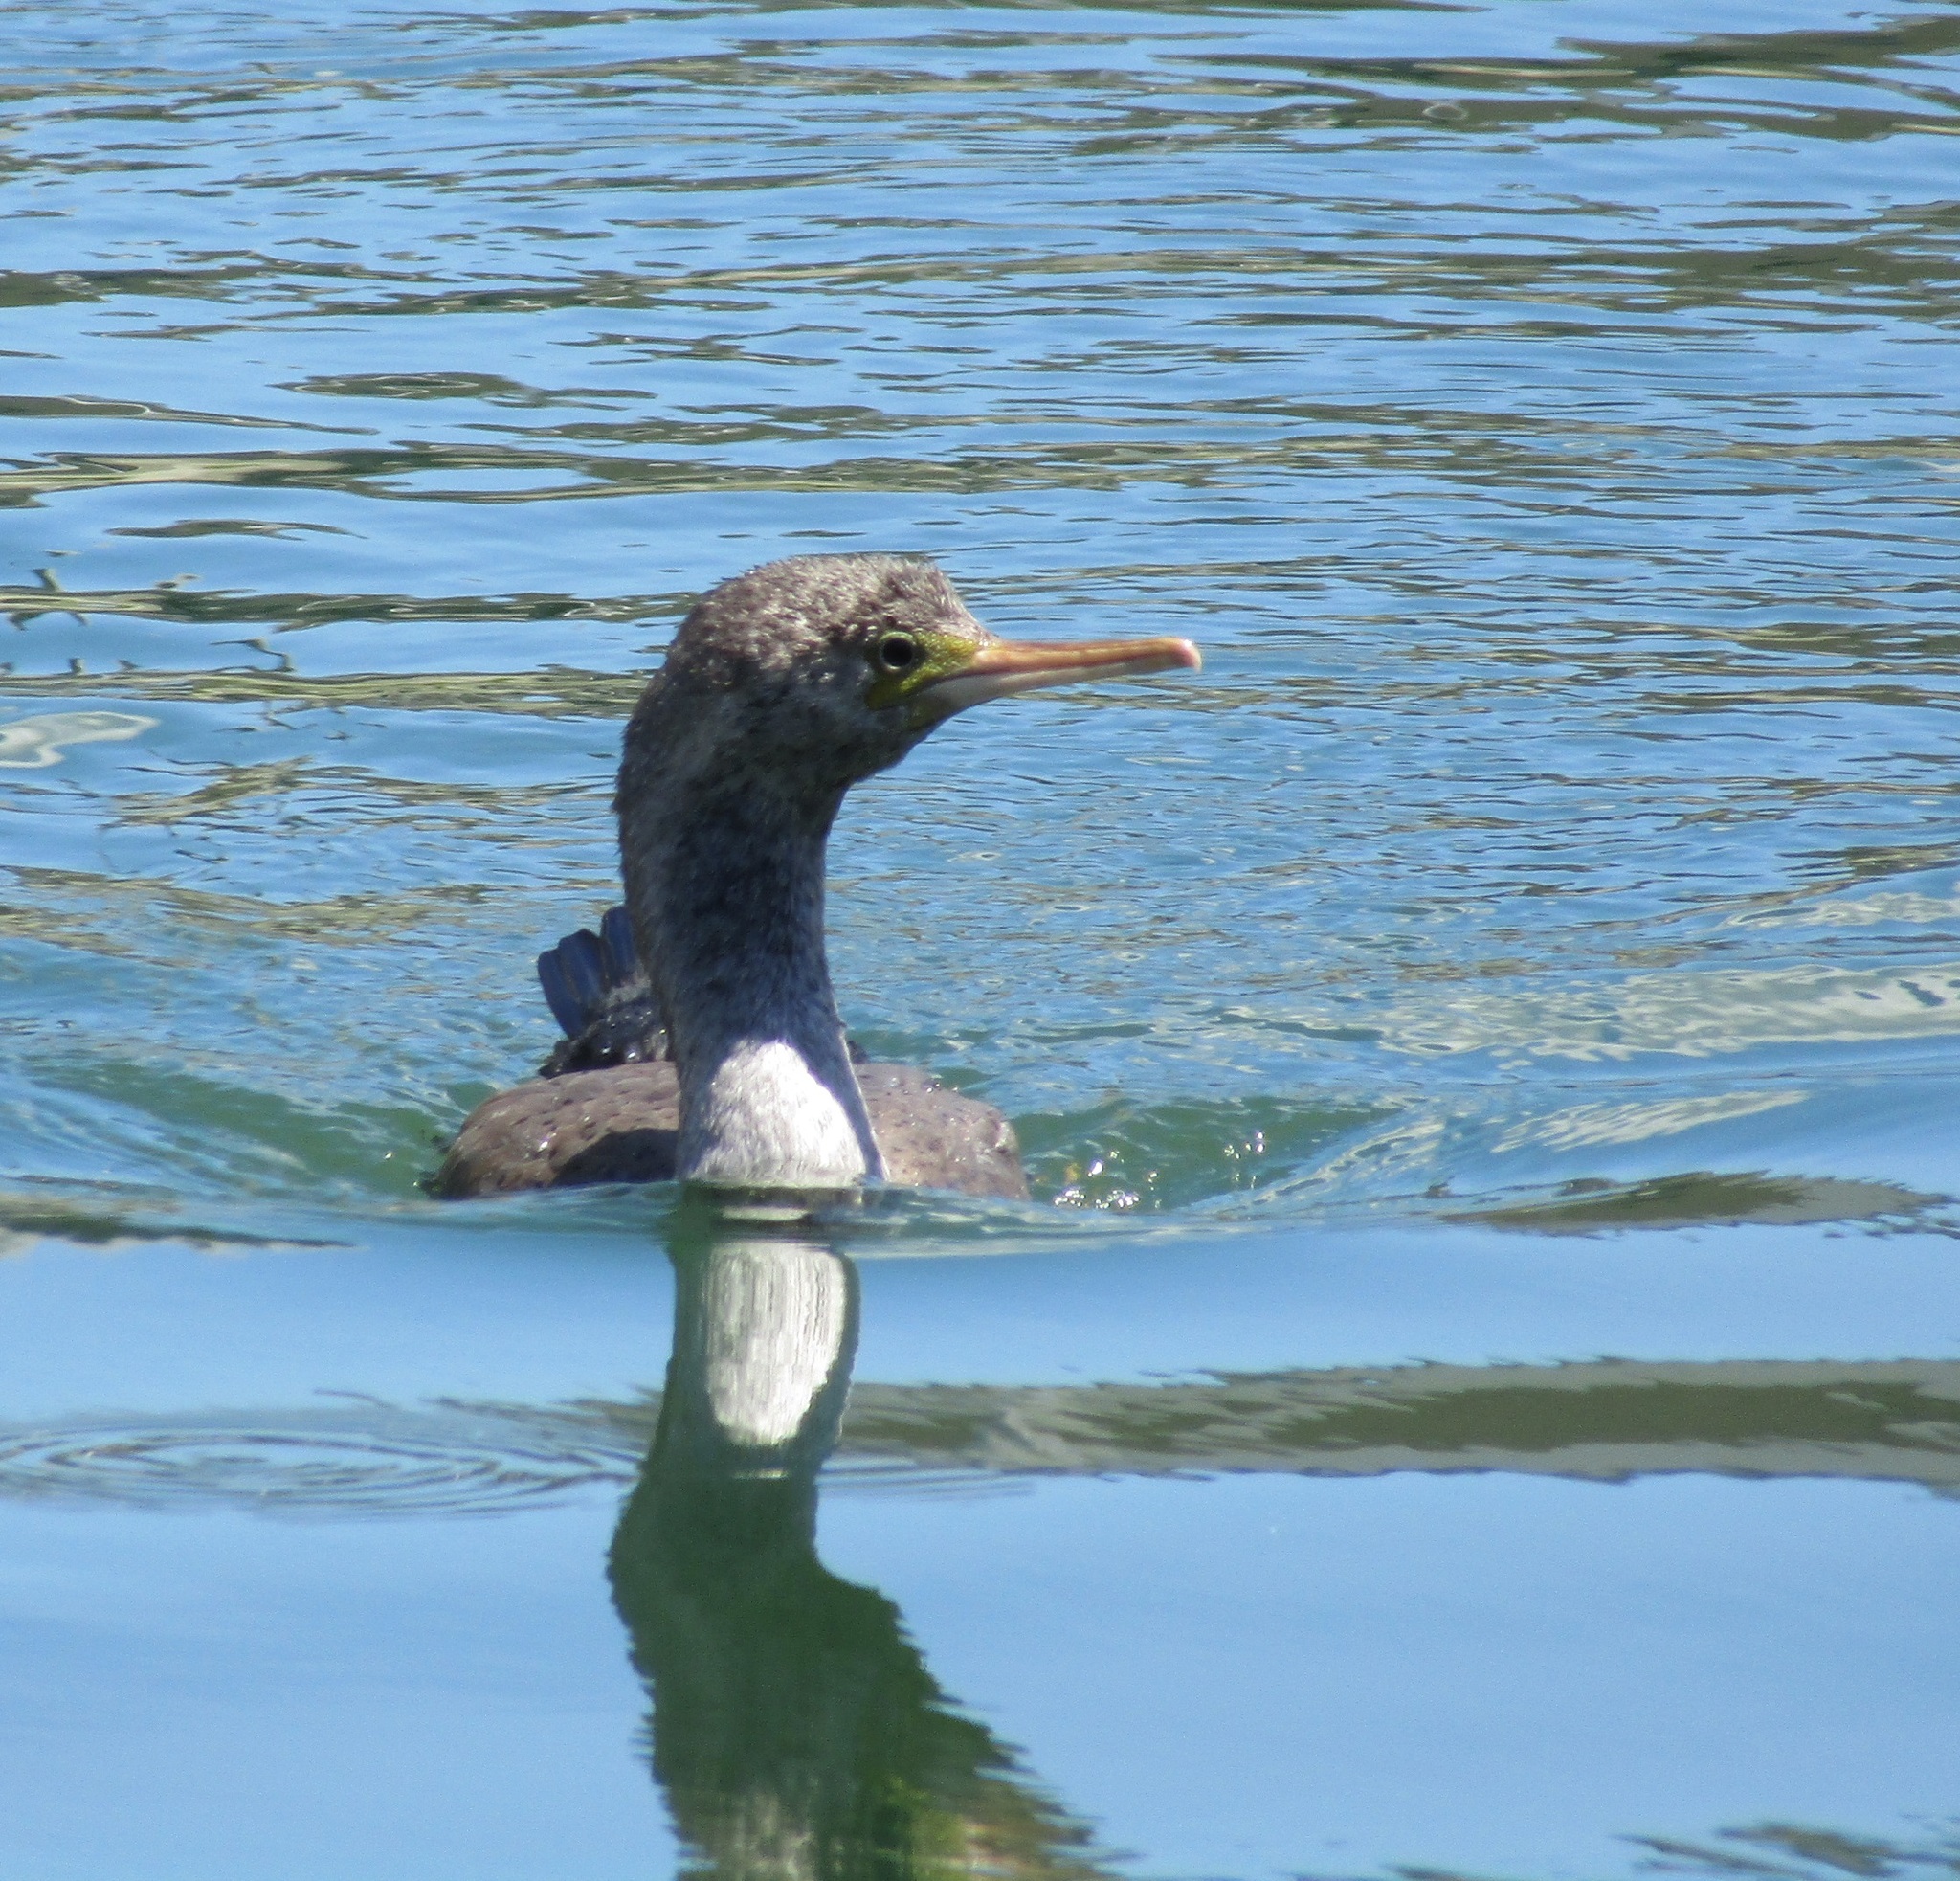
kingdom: Animalia
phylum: Chordata
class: Aves
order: Suliformes
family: Phalacrocoracidae
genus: Phalacrocorax
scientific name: Phalacrocorax punctatus
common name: Spotted shag
